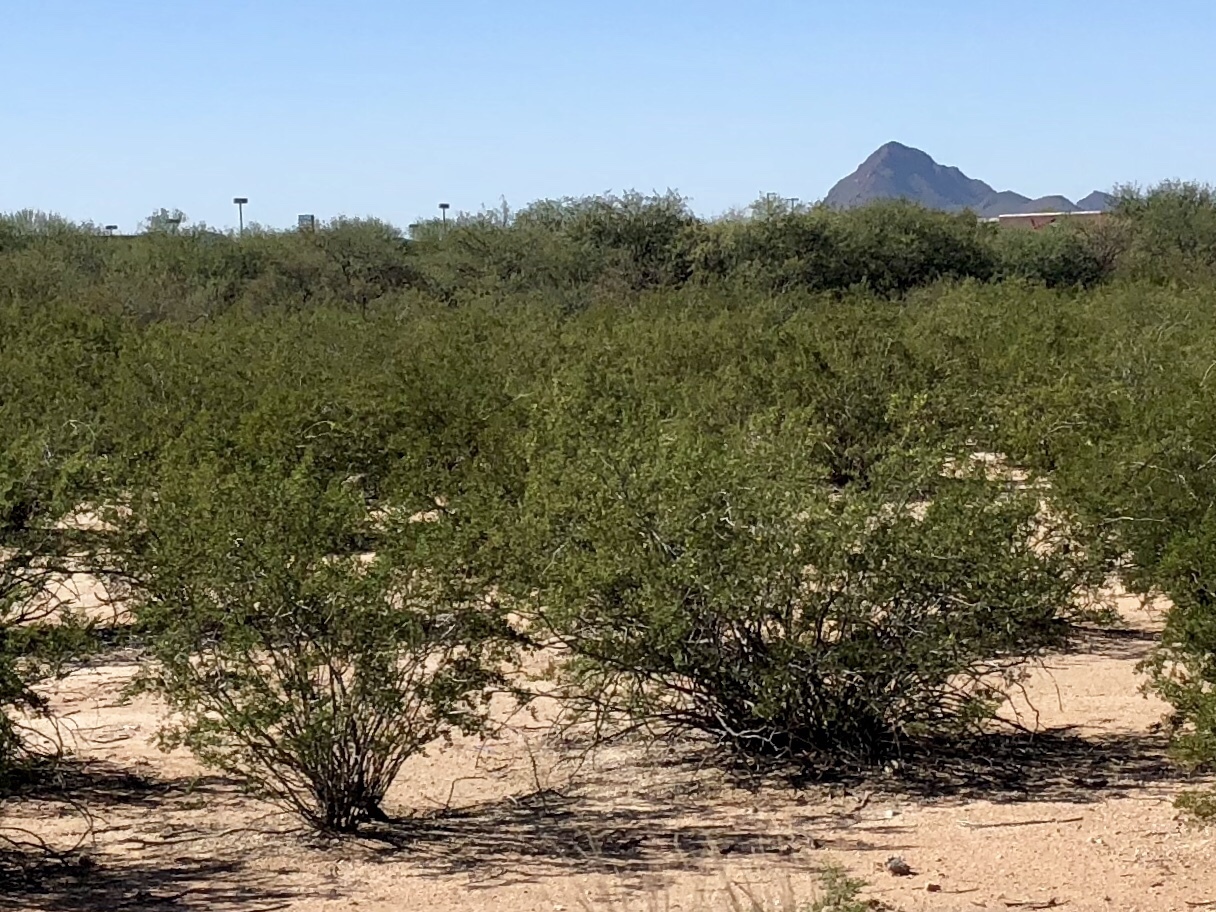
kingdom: Plantae
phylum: Tracheophyta
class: Magnoliopsida
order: Zygophyllales
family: Zygophyllaceae
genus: Larrea
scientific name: Larrea tridentata
